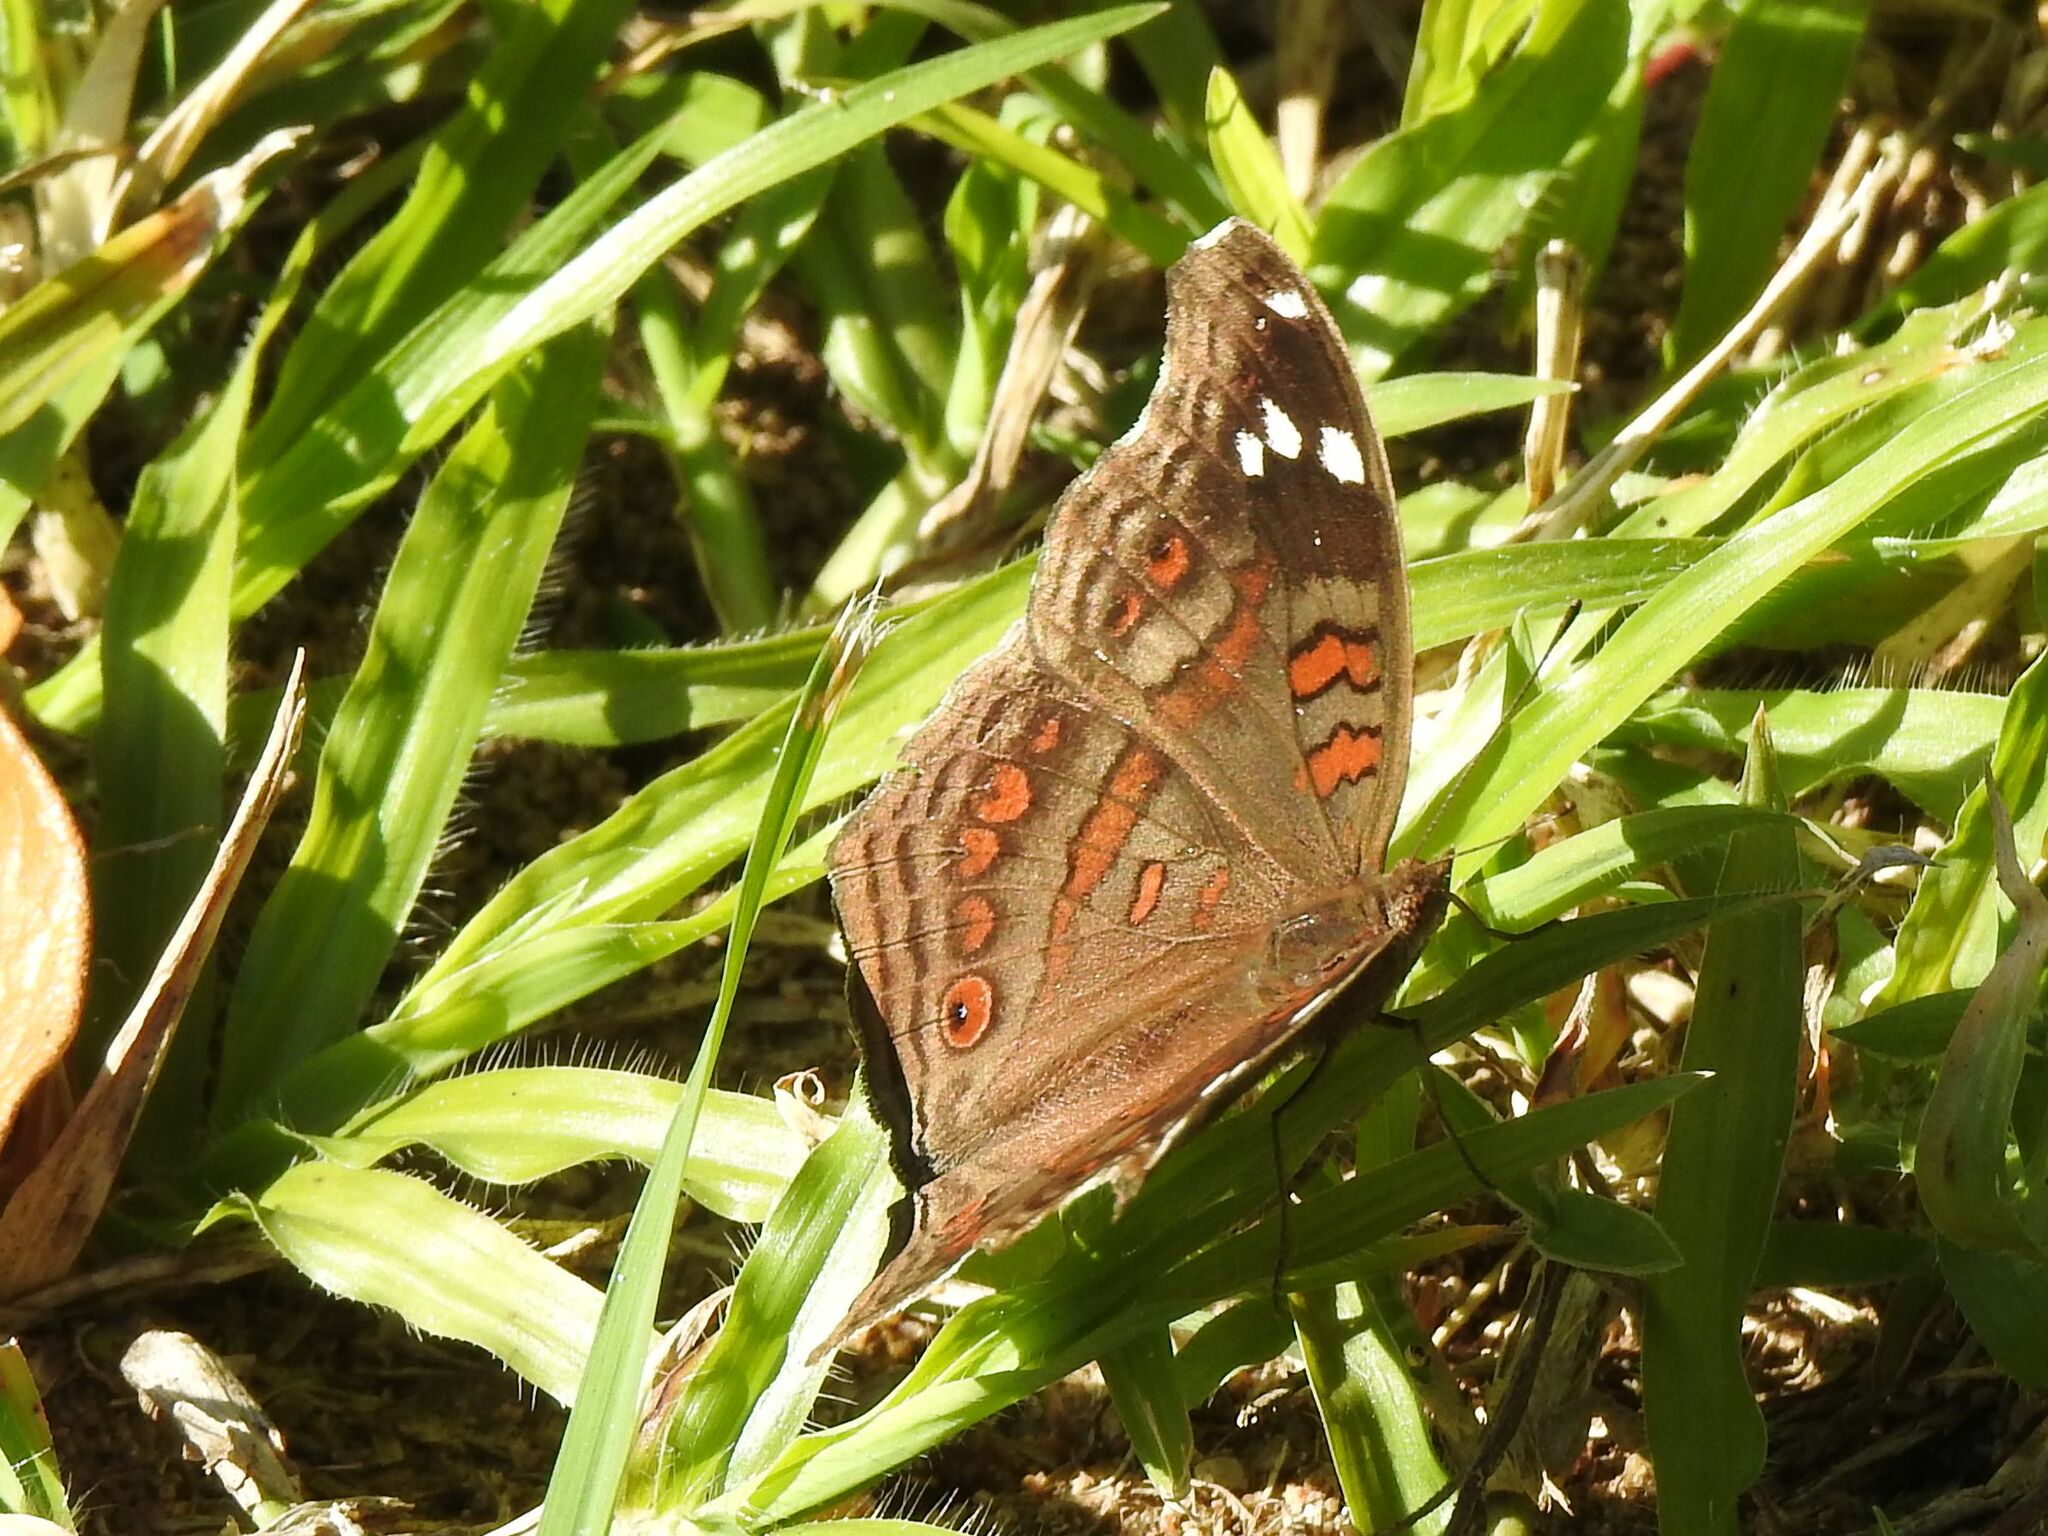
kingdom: Animalia
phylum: Arthropoda
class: Insecta
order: Lepidoptera
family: Nymphalidae
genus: Junonia
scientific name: Junonia natalica
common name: Brown pansy
